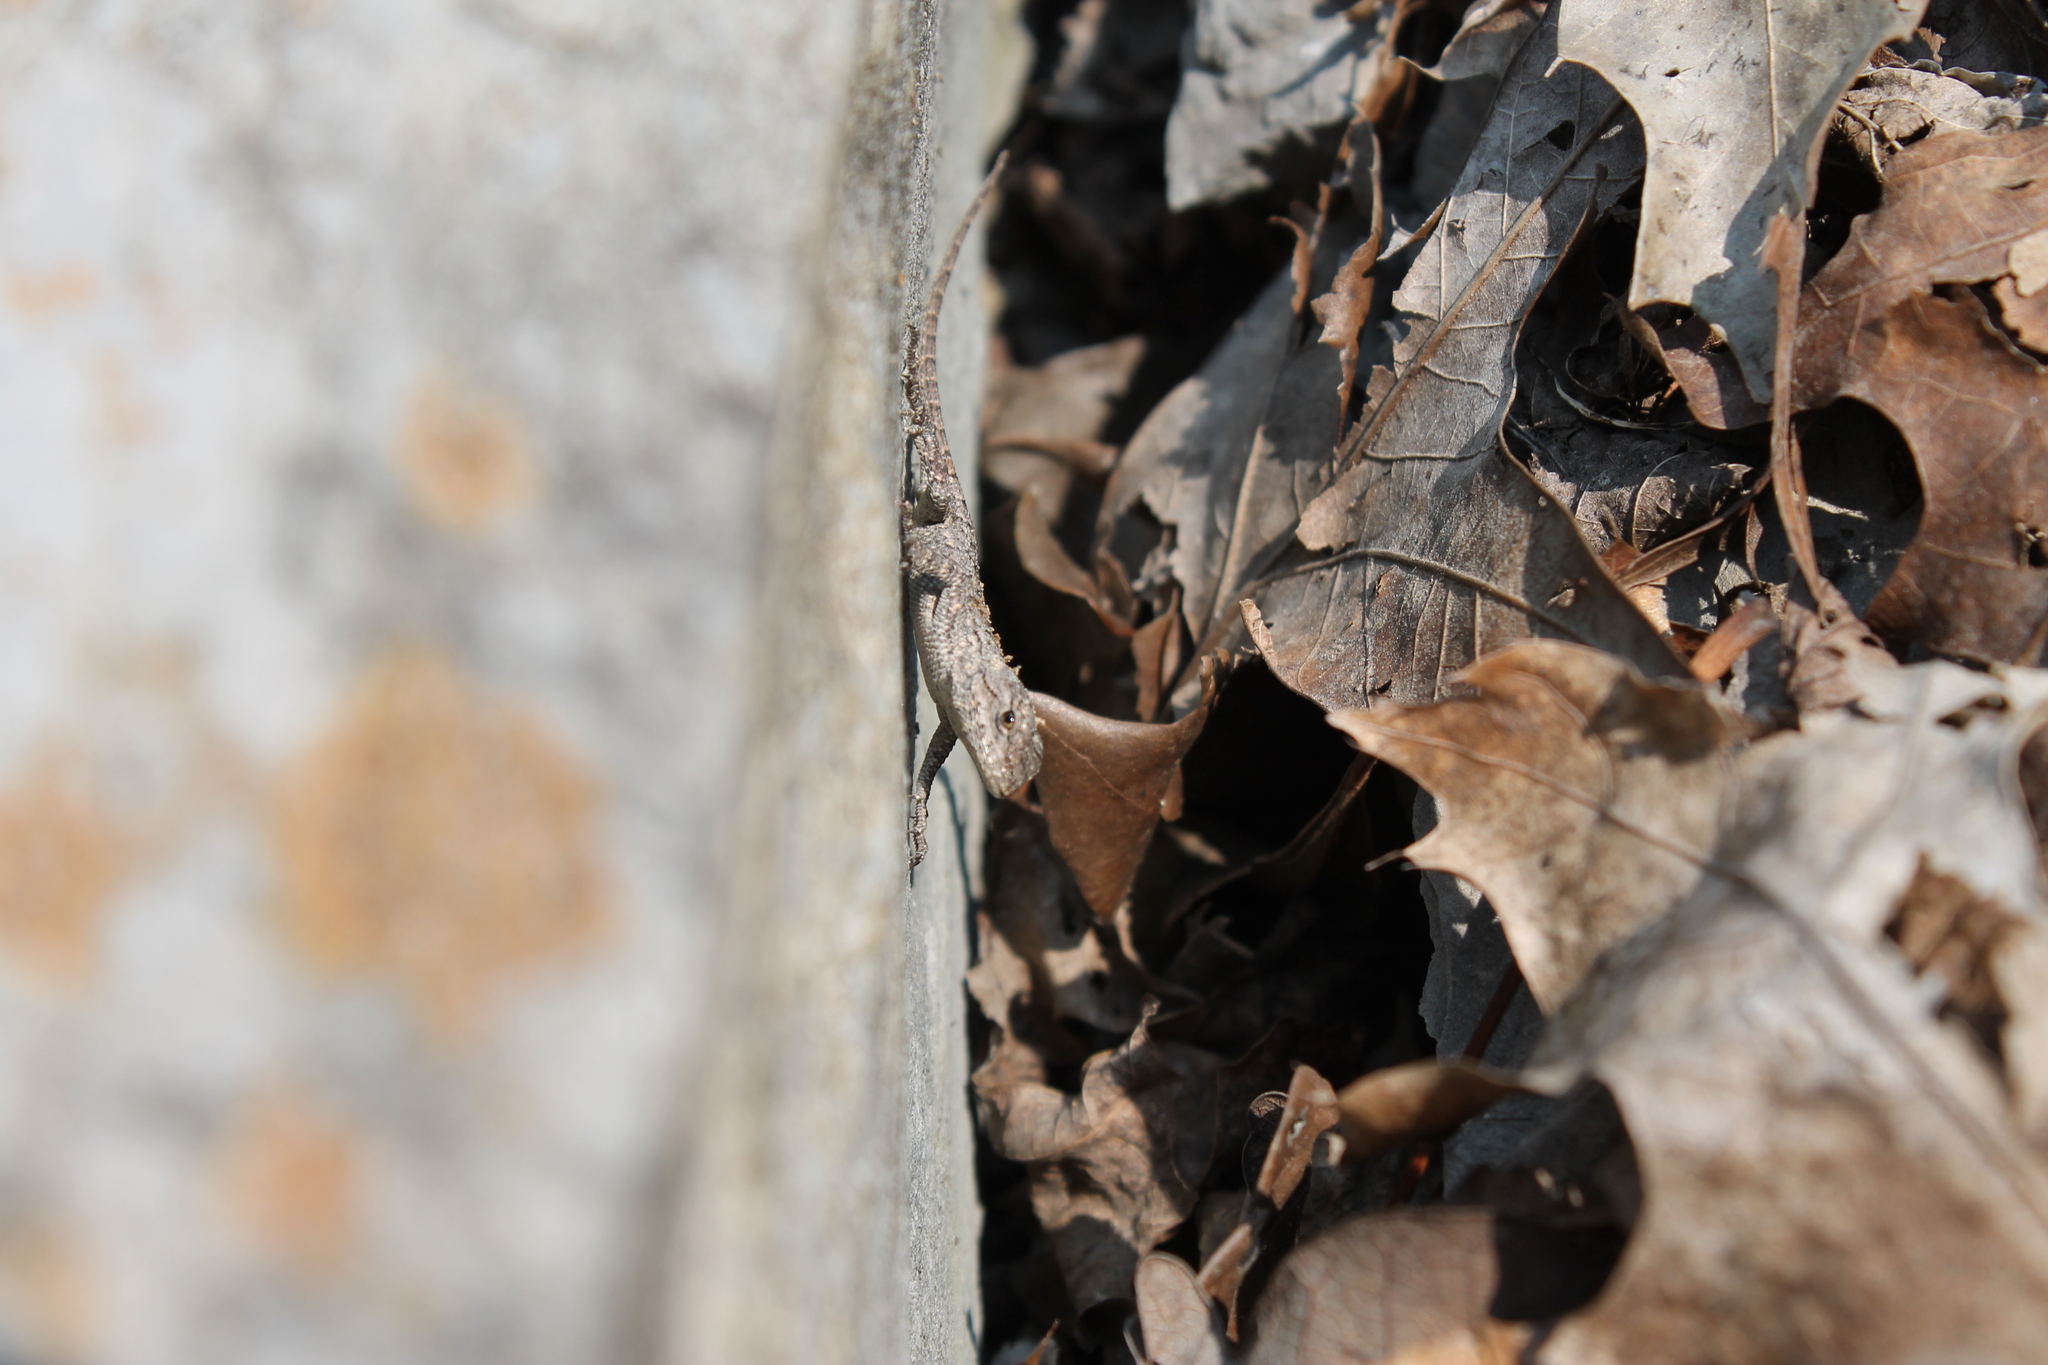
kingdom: Animalia
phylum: Chordata
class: Squamata
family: Phrynosomatidae
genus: Sceloporus
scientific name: Sceloporus undulatus
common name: Eastern fence lizard
